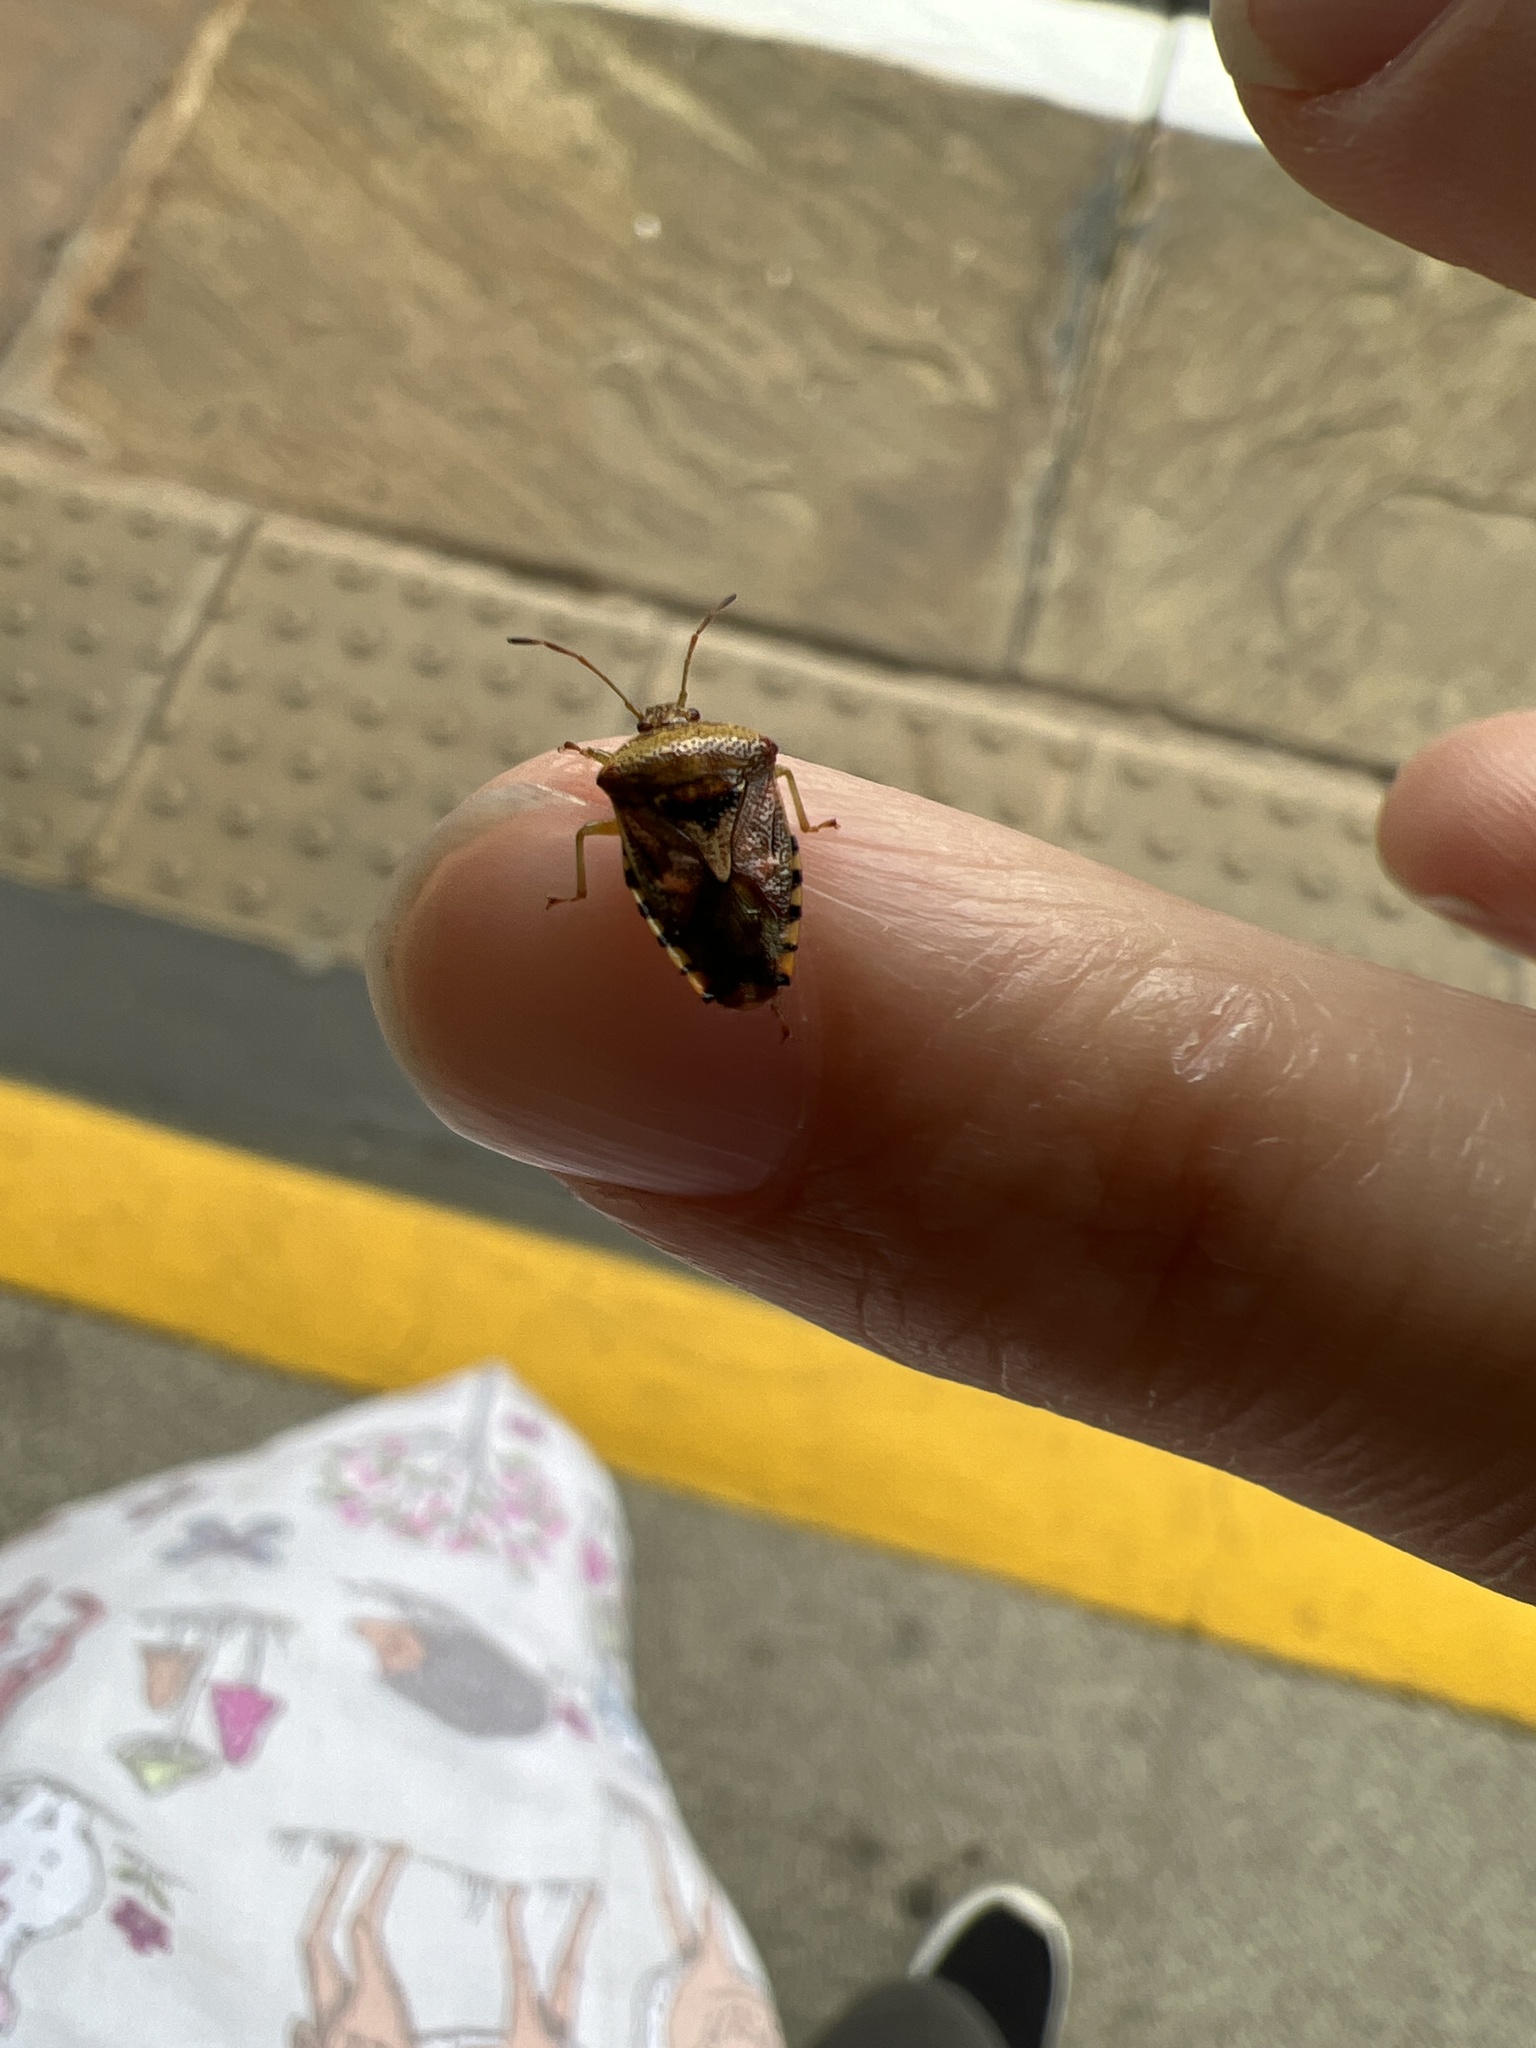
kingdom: Animalia
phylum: Arthropoda
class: Insecta
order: Hemiptera
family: Acanthosomatidae
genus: Elasmucha
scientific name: Elasmucha grisea
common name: Parent bug
